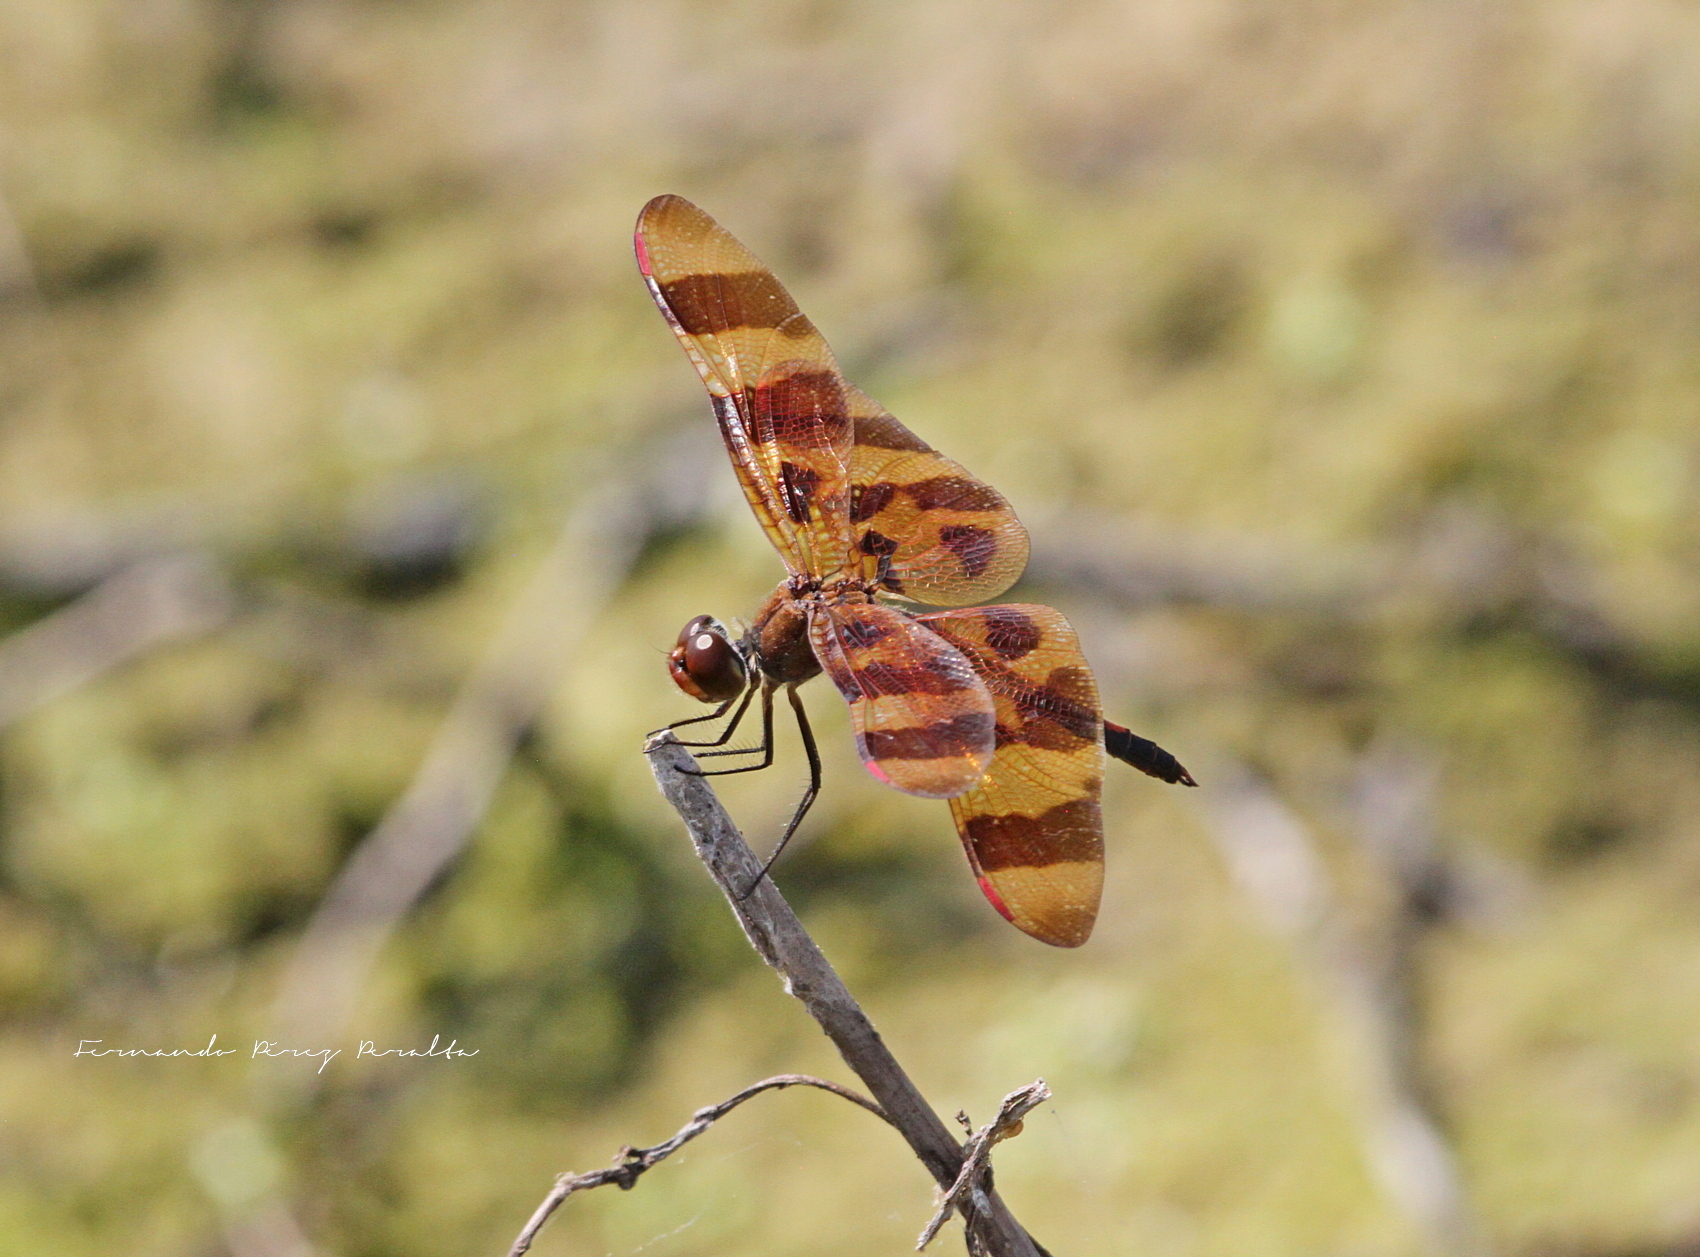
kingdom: Animalia
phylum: Arthropoda
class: Insecta
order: Odonata
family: Libellulidae
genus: Celithemis
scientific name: Celithemis eponina
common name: Halloween pennant
